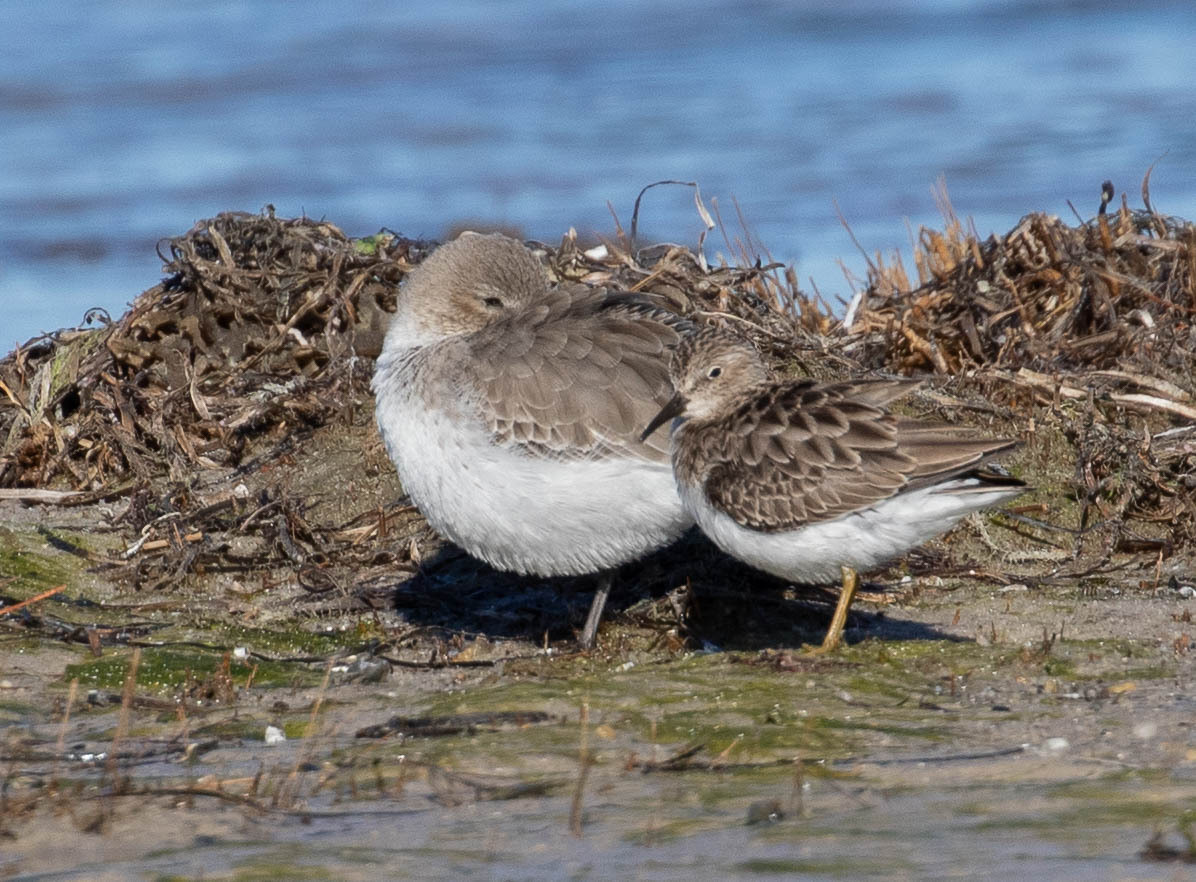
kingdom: Animalia
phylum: Chordata
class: Aves
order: Charadriiformes
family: Scolopacidae
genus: Calidris
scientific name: Calidris alpina
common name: Dunlin
